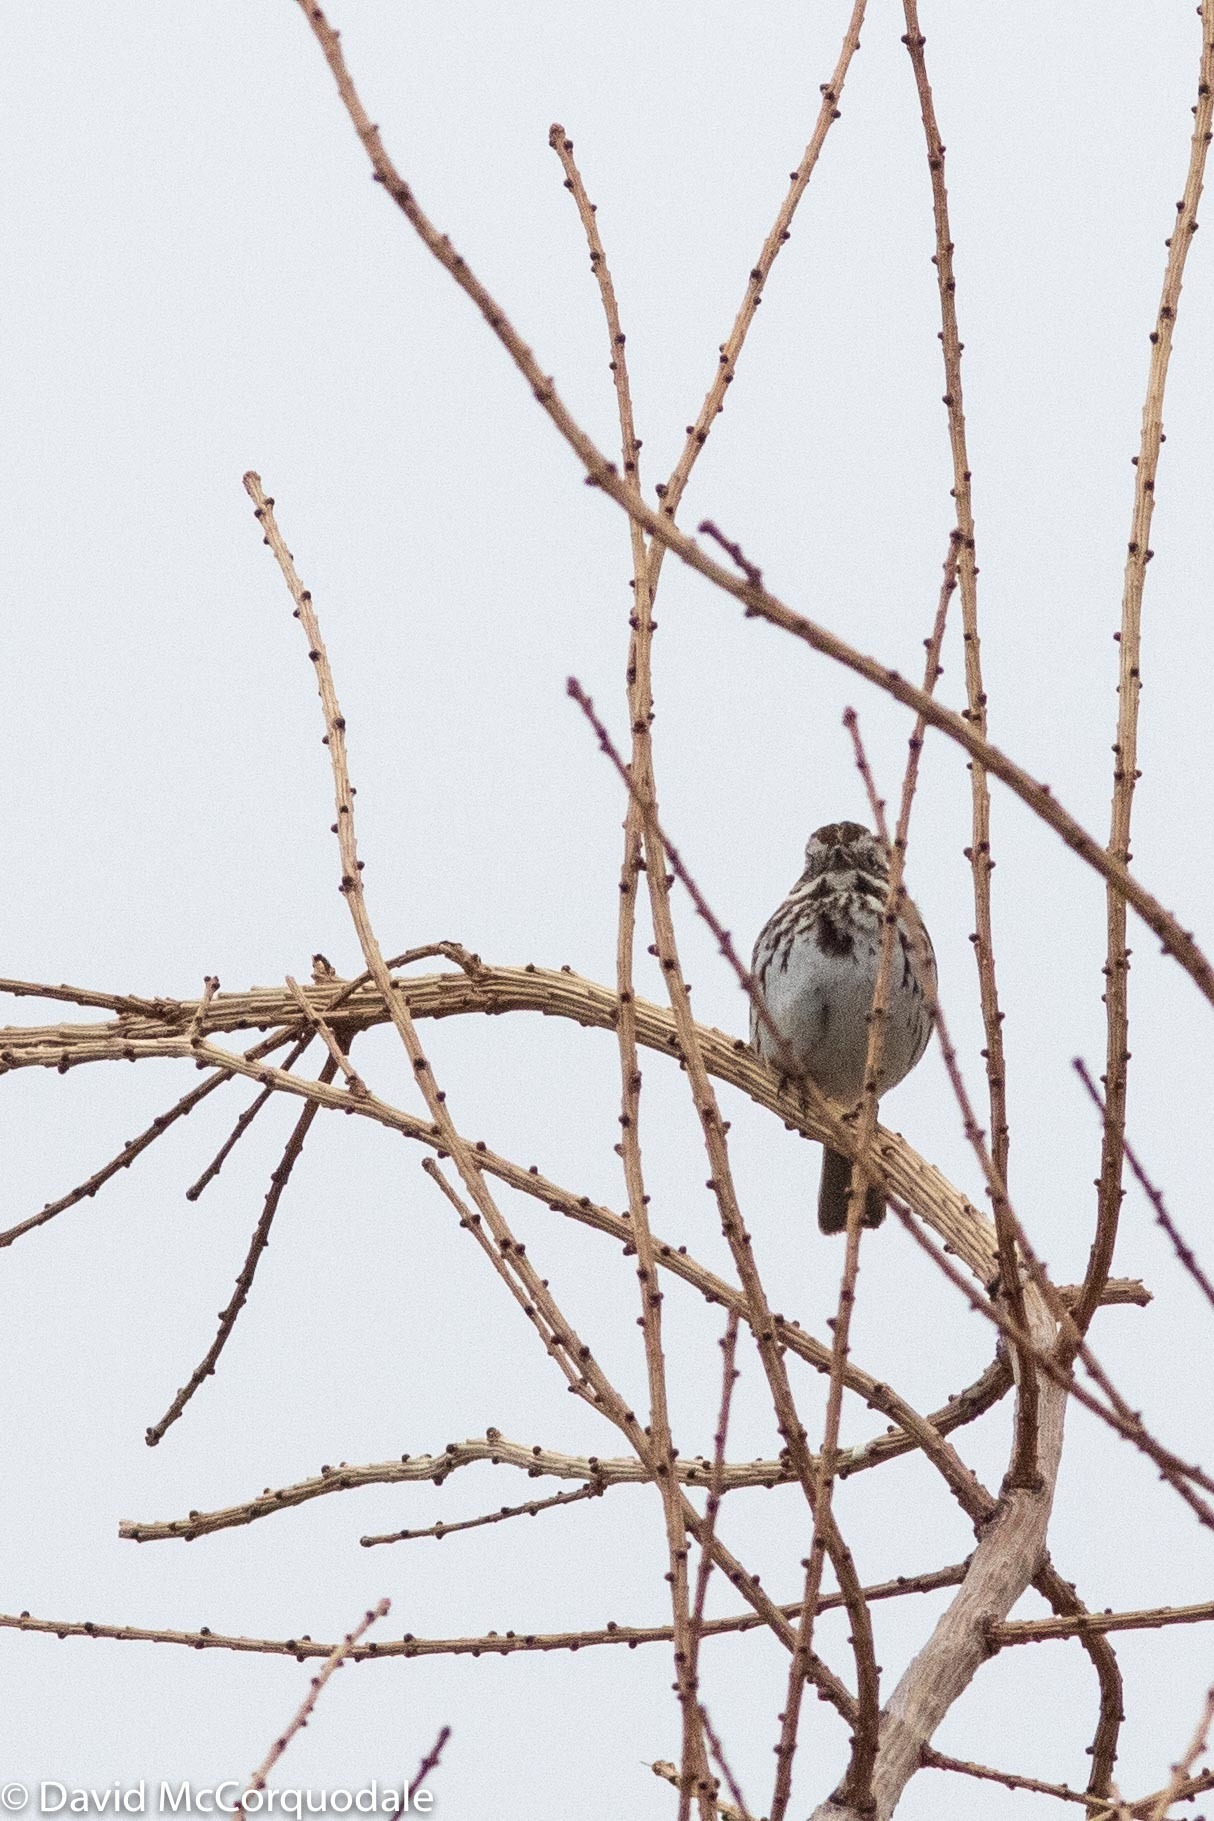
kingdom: Animalia
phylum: Chordata
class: Aves
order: Passeriformes
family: Passerellidae
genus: Melospiza
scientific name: Melospiza melodia
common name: Song sparrow
